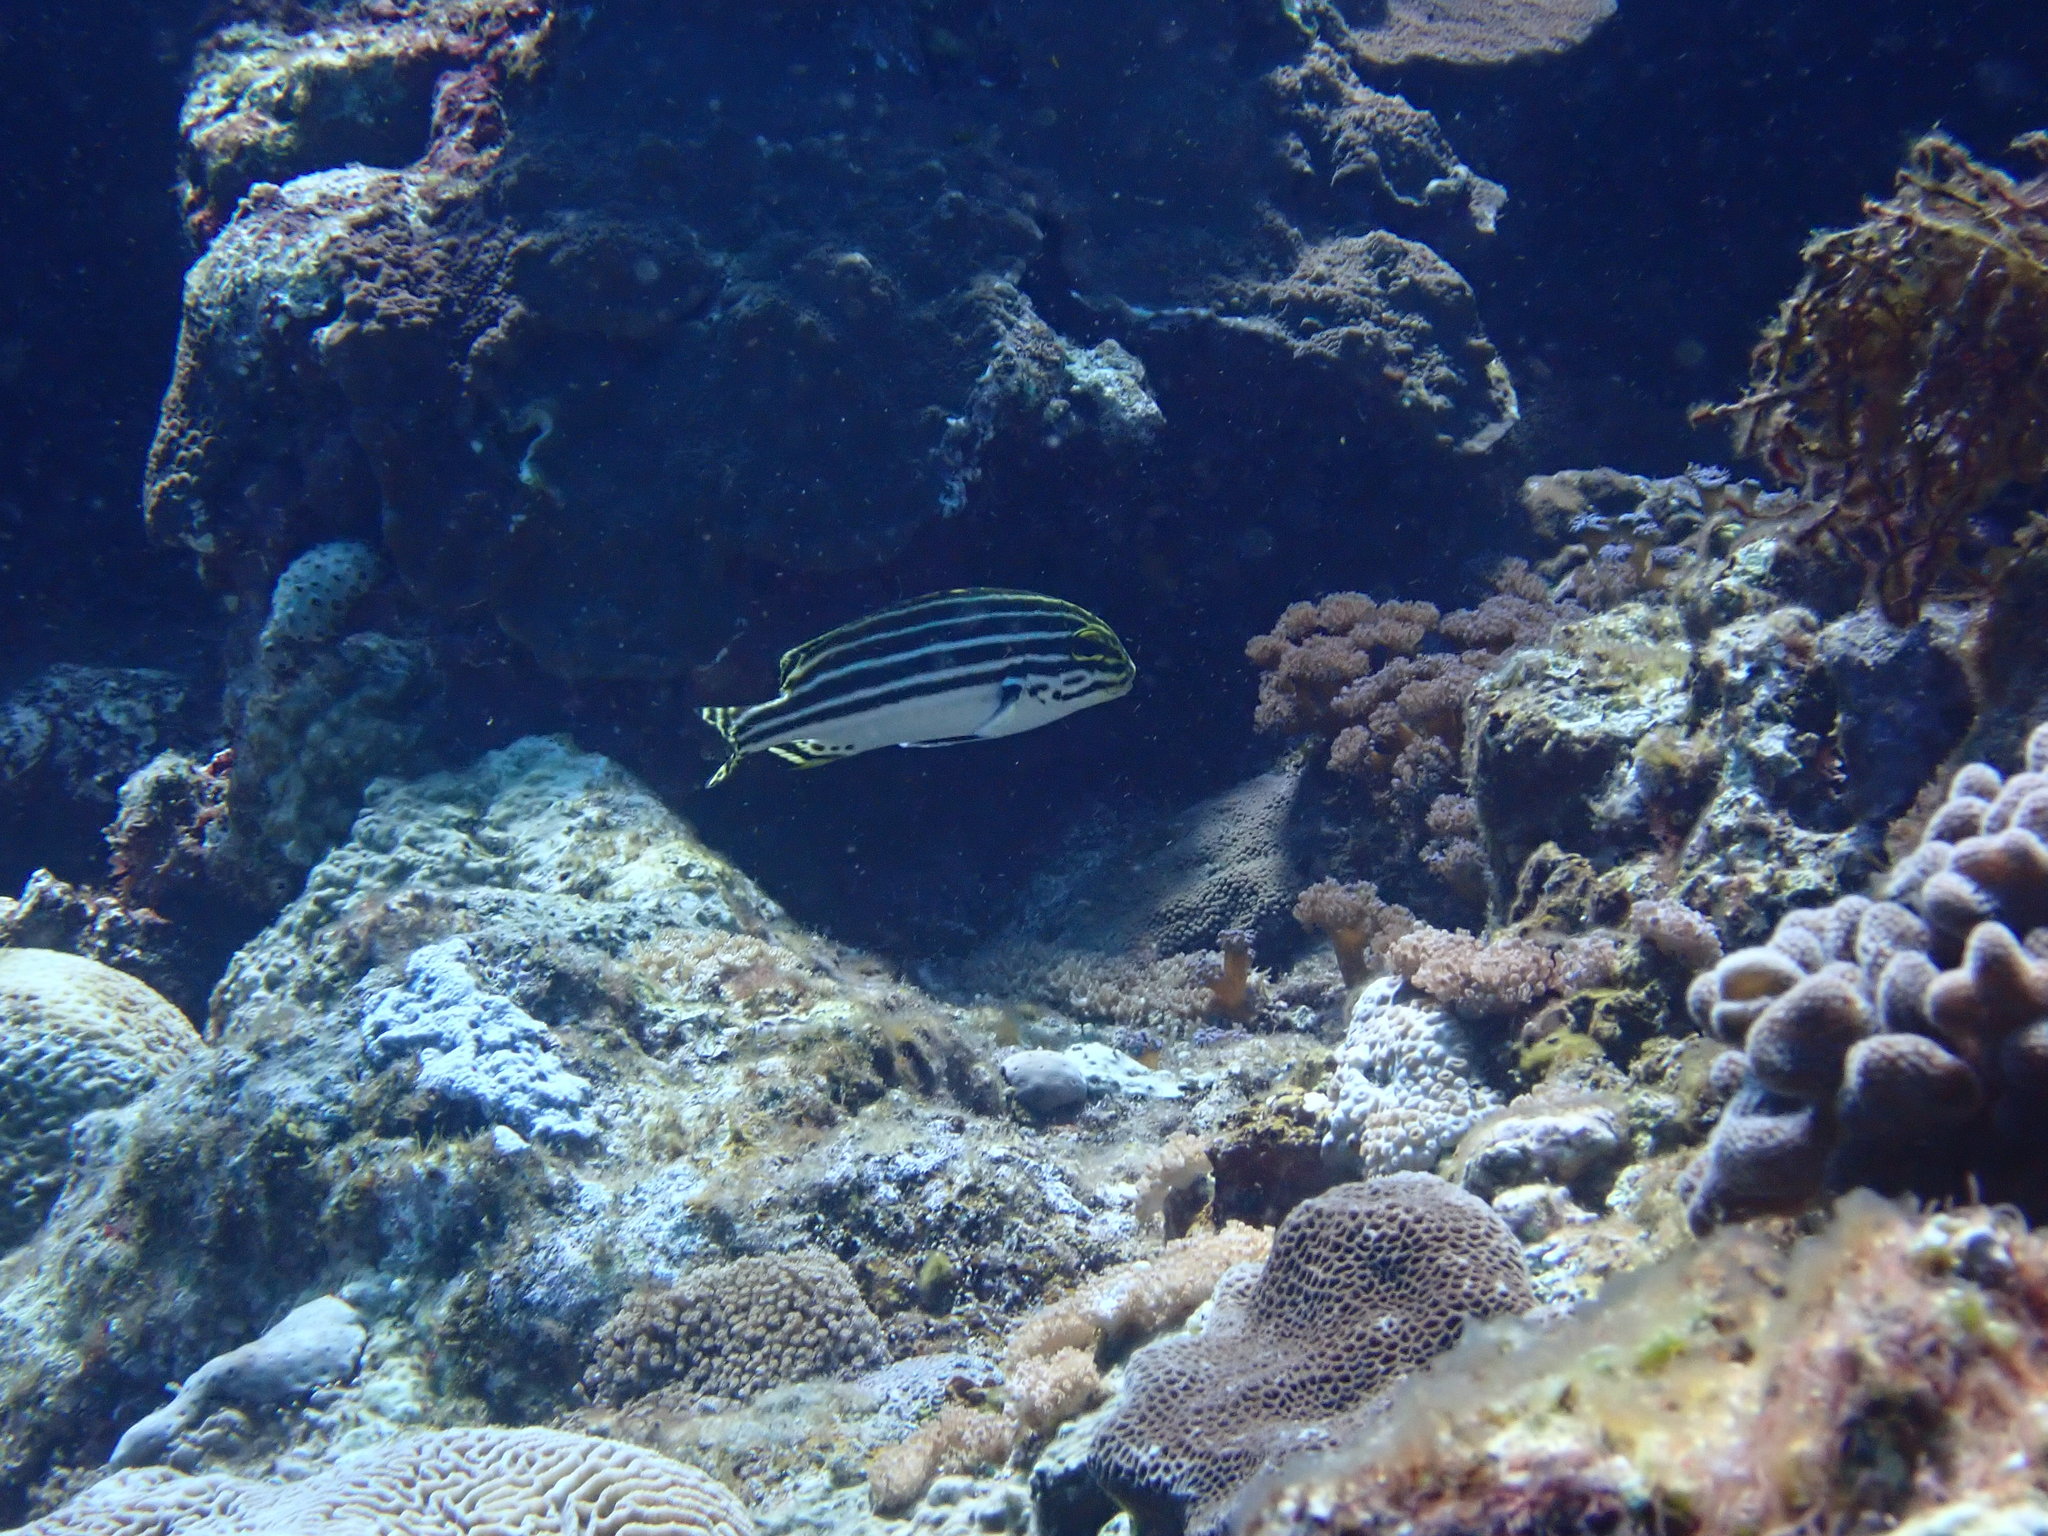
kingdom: Animalia
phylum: Chordata
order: Perciformes
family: Haemulidae
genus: Plectorhinchus
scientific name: Plectorhinchus lessonii
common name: Lesson's thicklip
